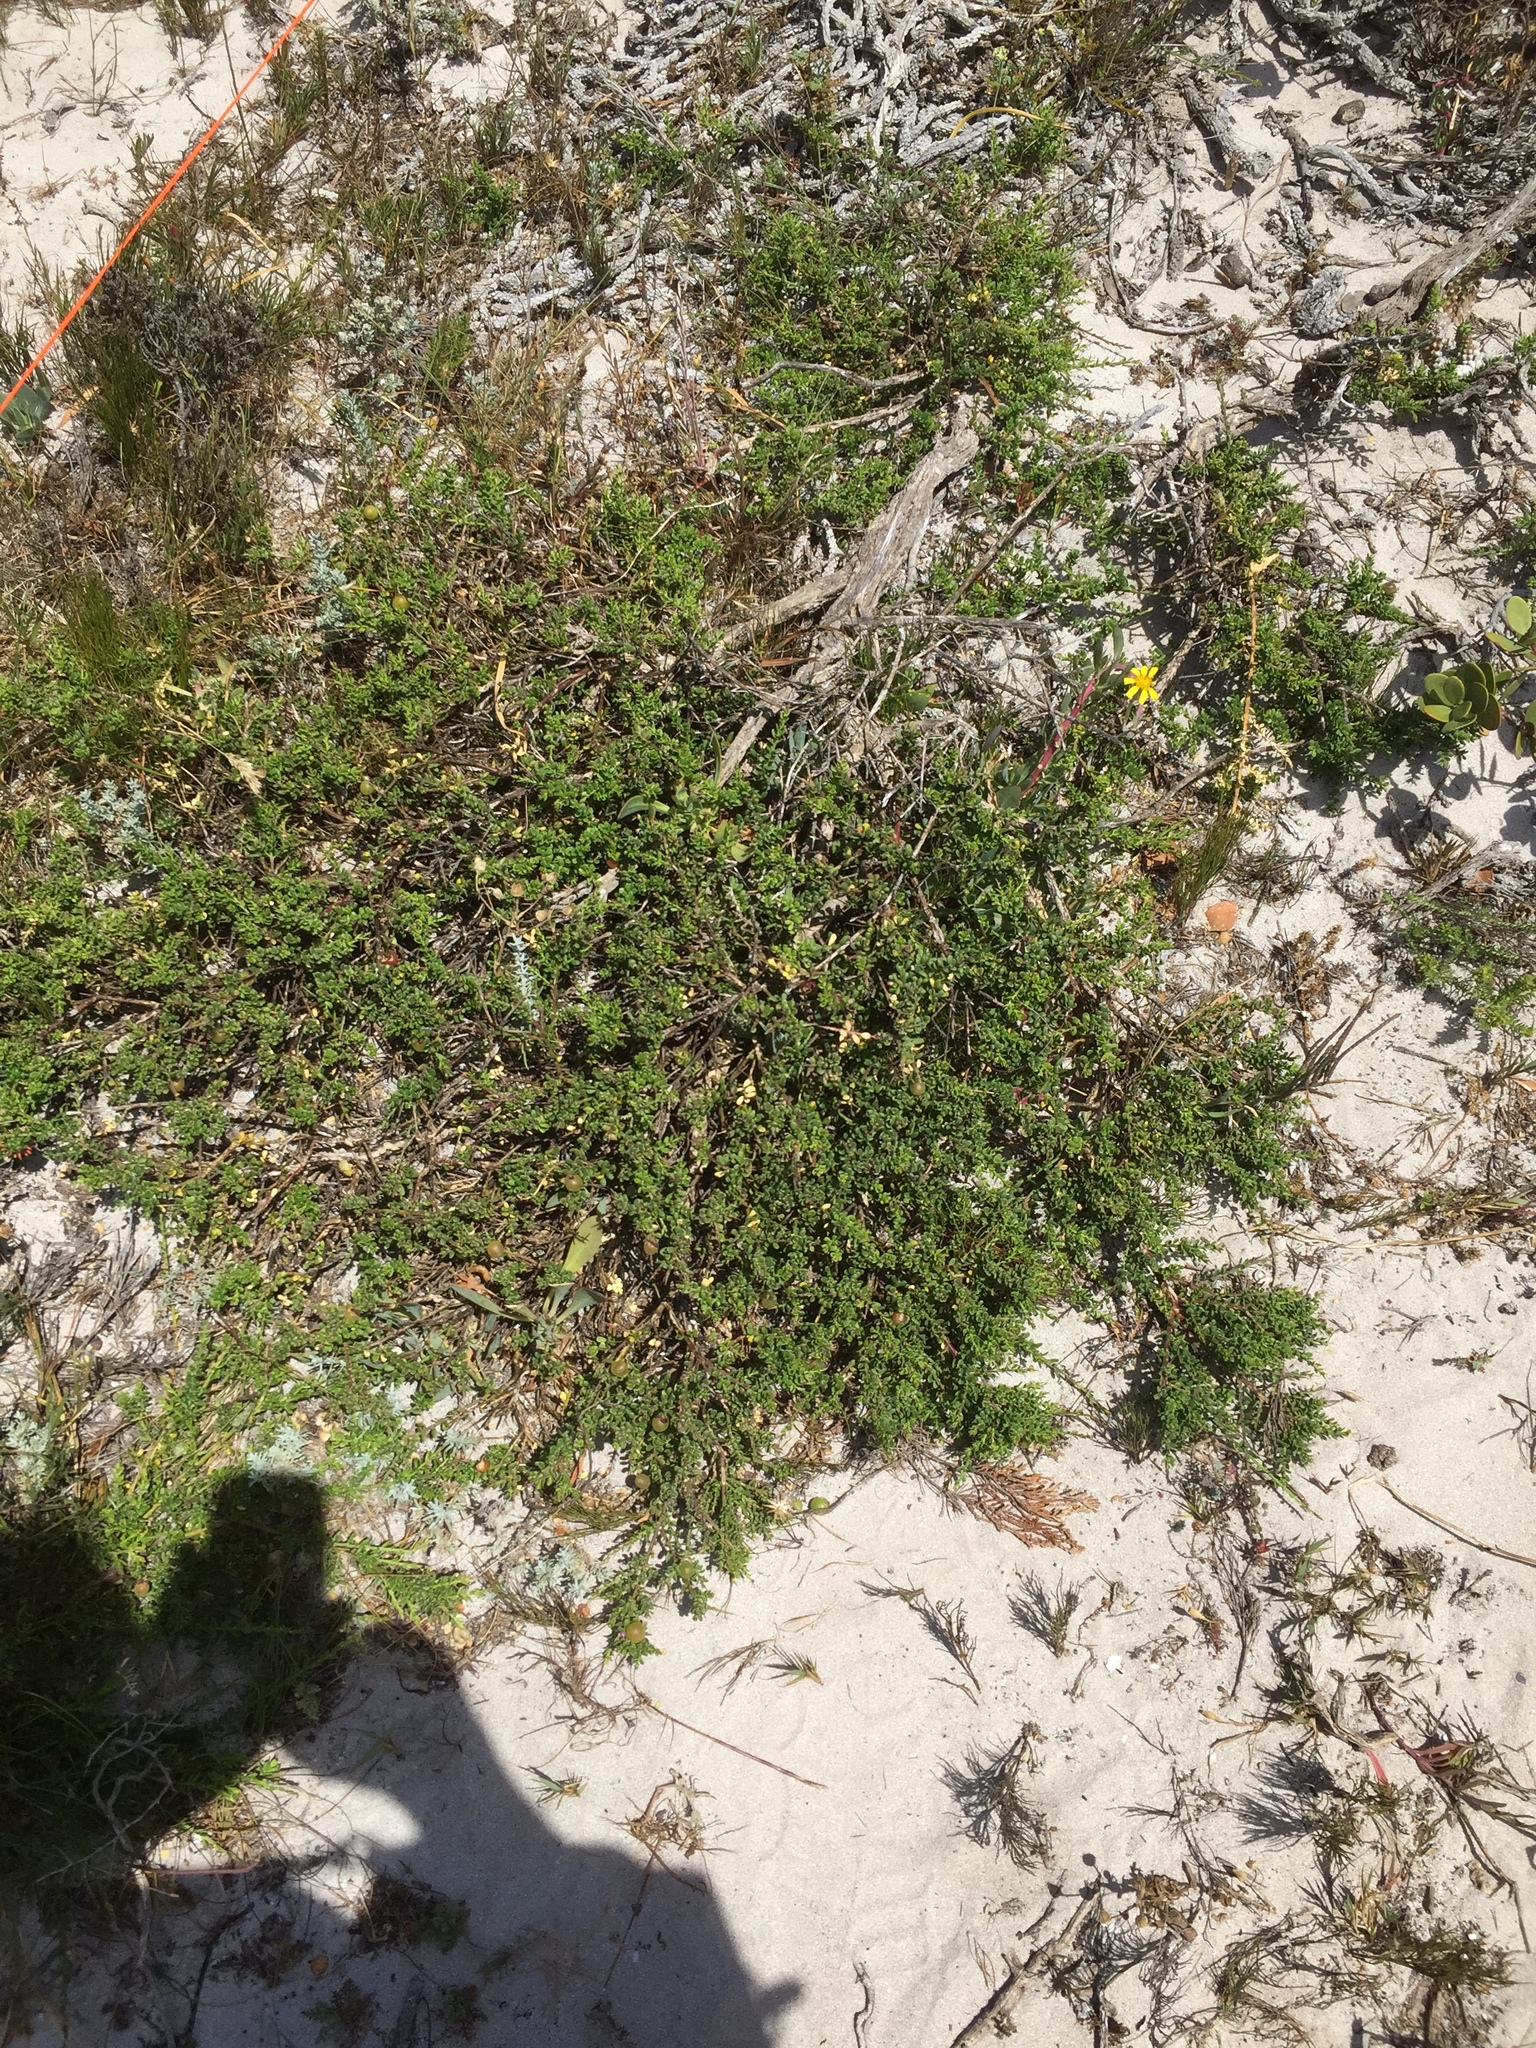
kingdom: Plantae
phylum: Tracheophyta
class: Magnoliopsida
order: Fabales
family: Polygalaceae
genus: Muraltia
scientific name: Muraltia spinosa
